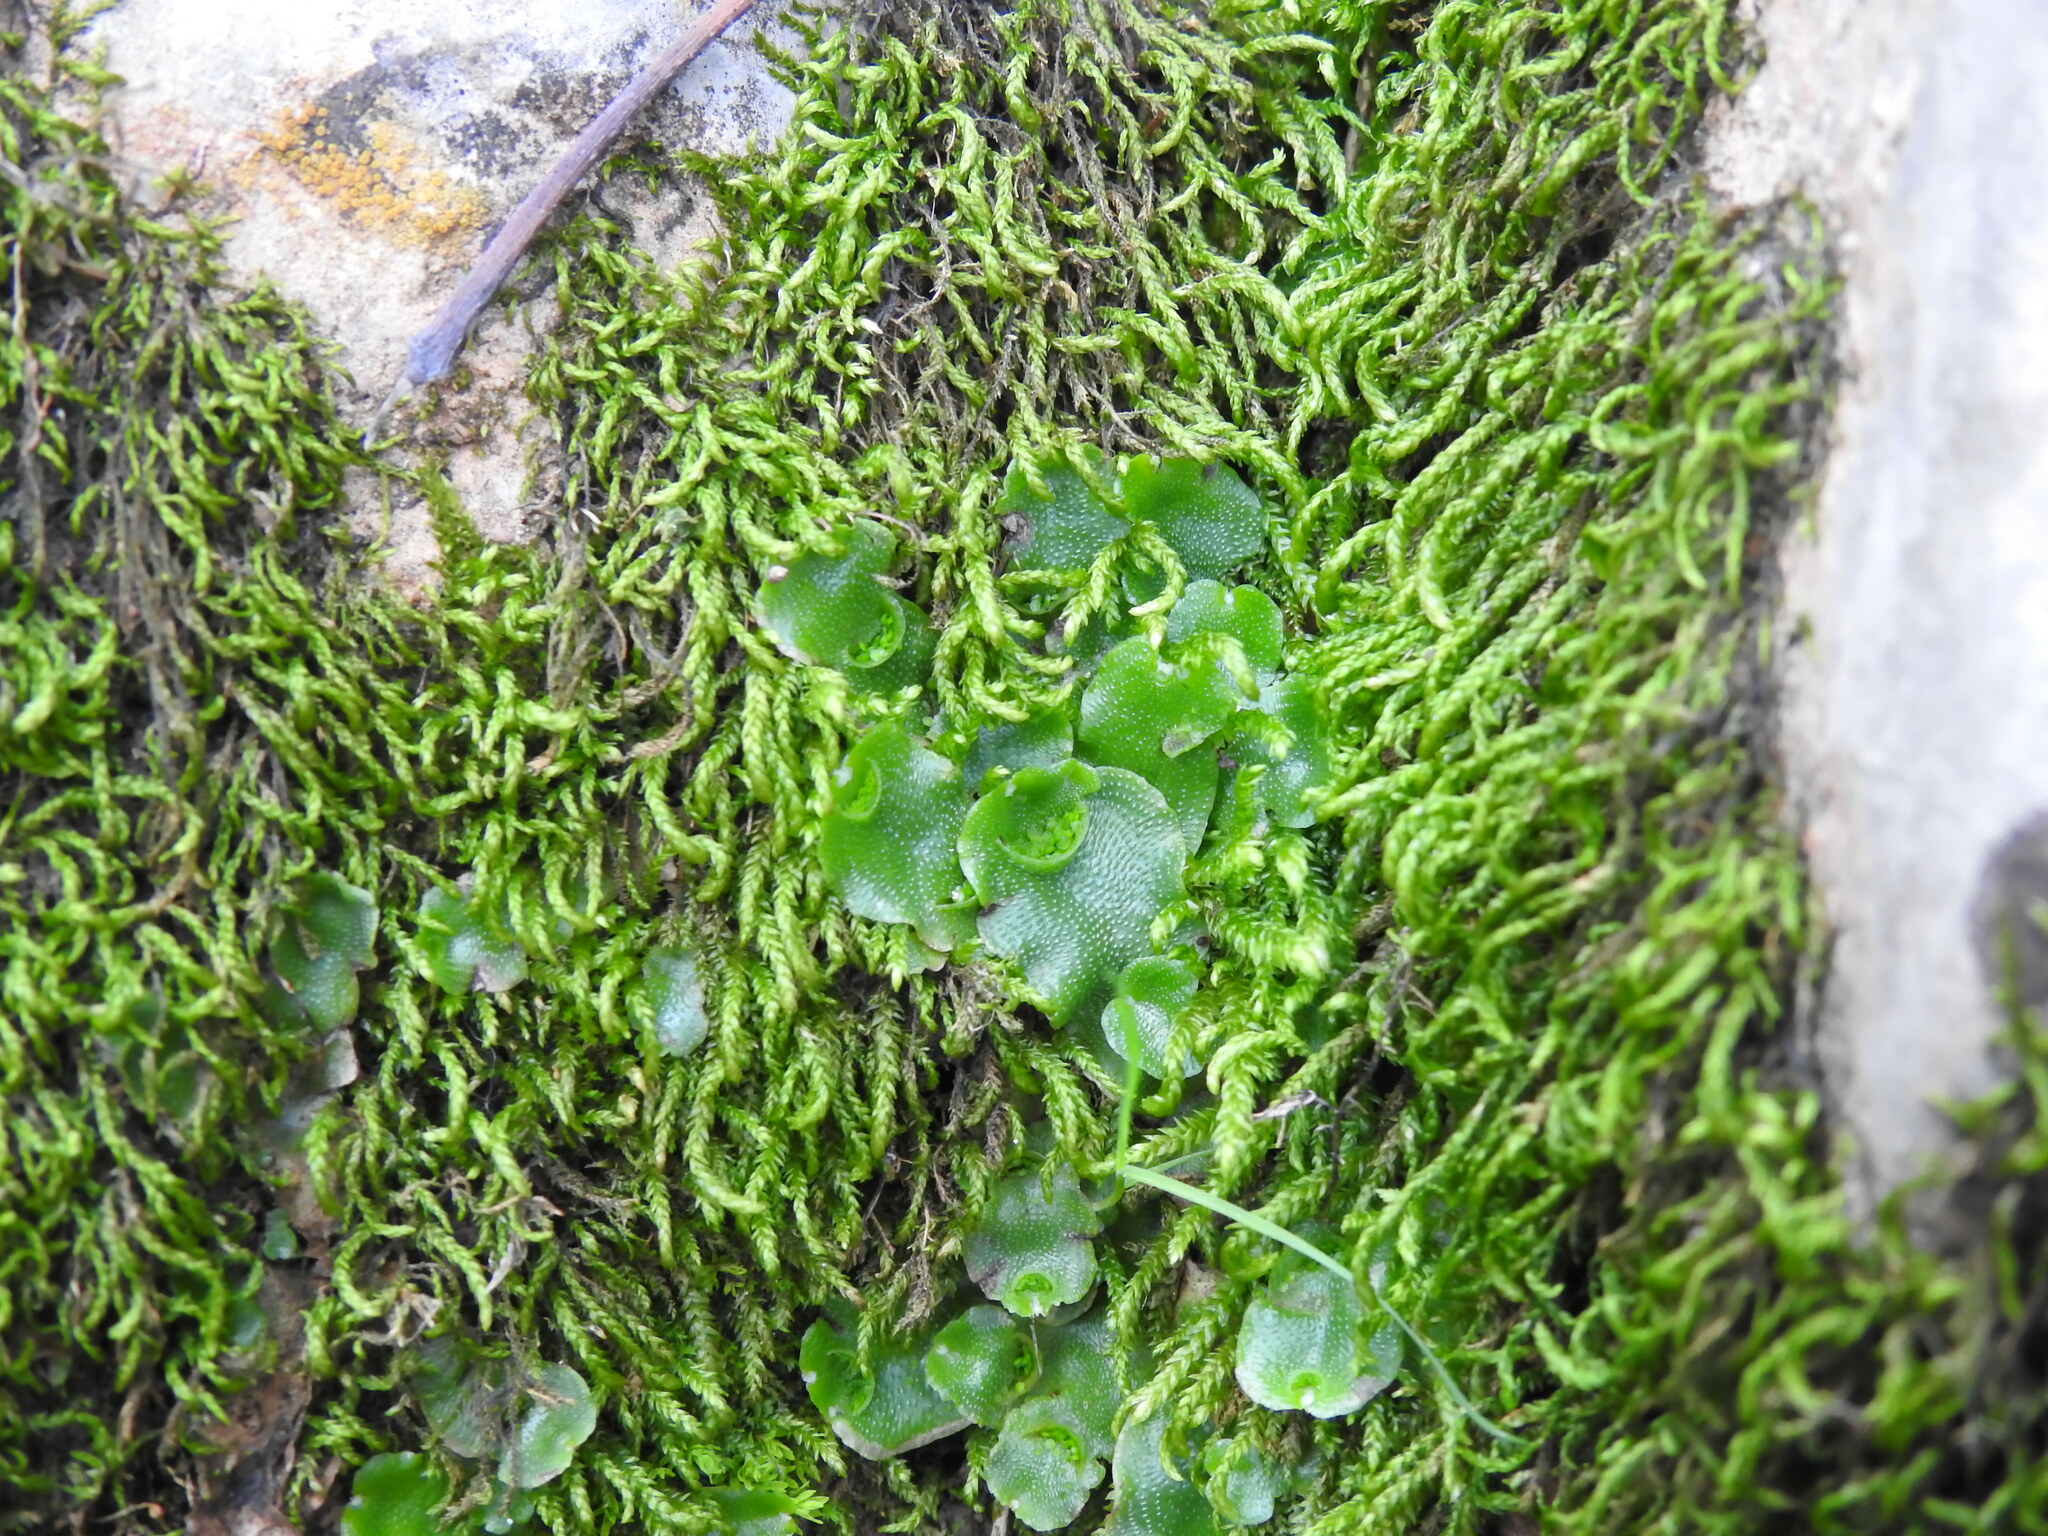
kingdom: Plantae
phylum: Marchantiophyta
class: Marchantiopsida
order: Lunulariales
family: Lunulariaceae
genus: Lunularia
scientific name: Lunularia cruciata
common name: Crescent-cup liverwort
